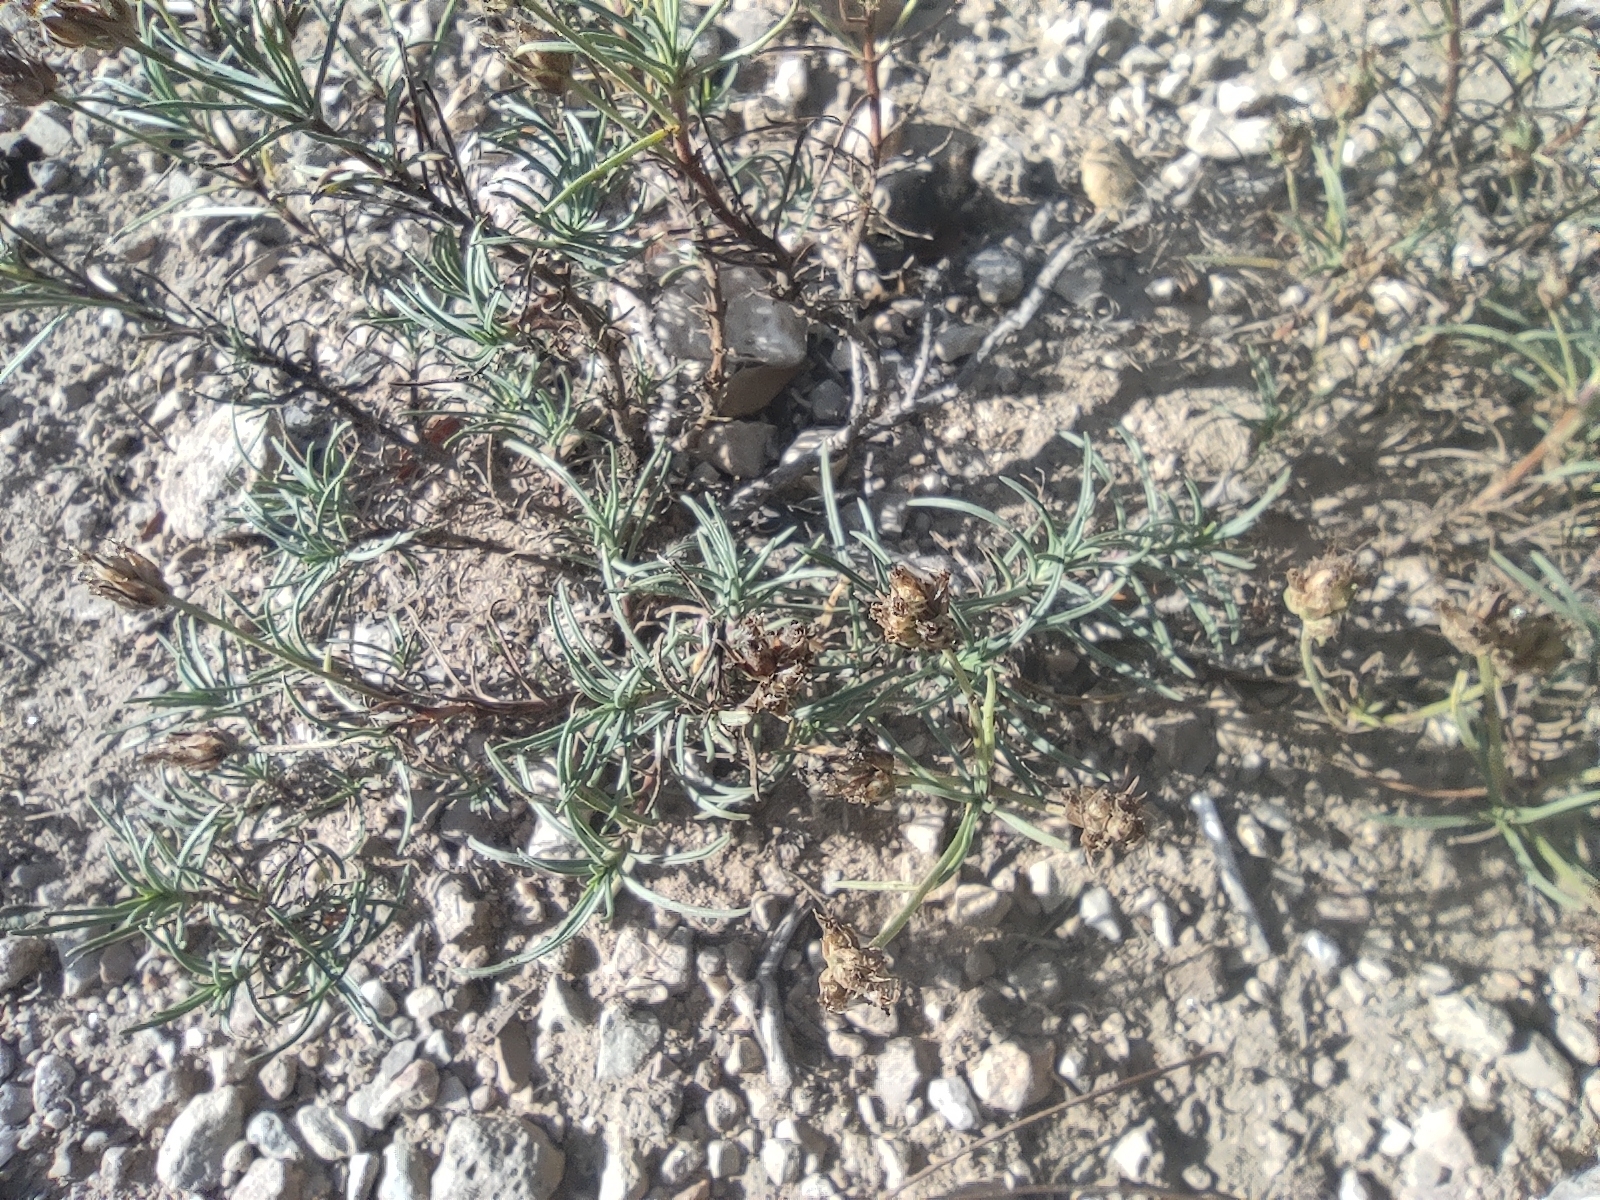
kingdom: Plantae
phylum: Tracheophyta
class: Magnoliopsida
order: Lamiales
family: Plantaginaceae
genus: Plantago
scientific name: Plantago sempervirens
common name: Shrubby plantain
